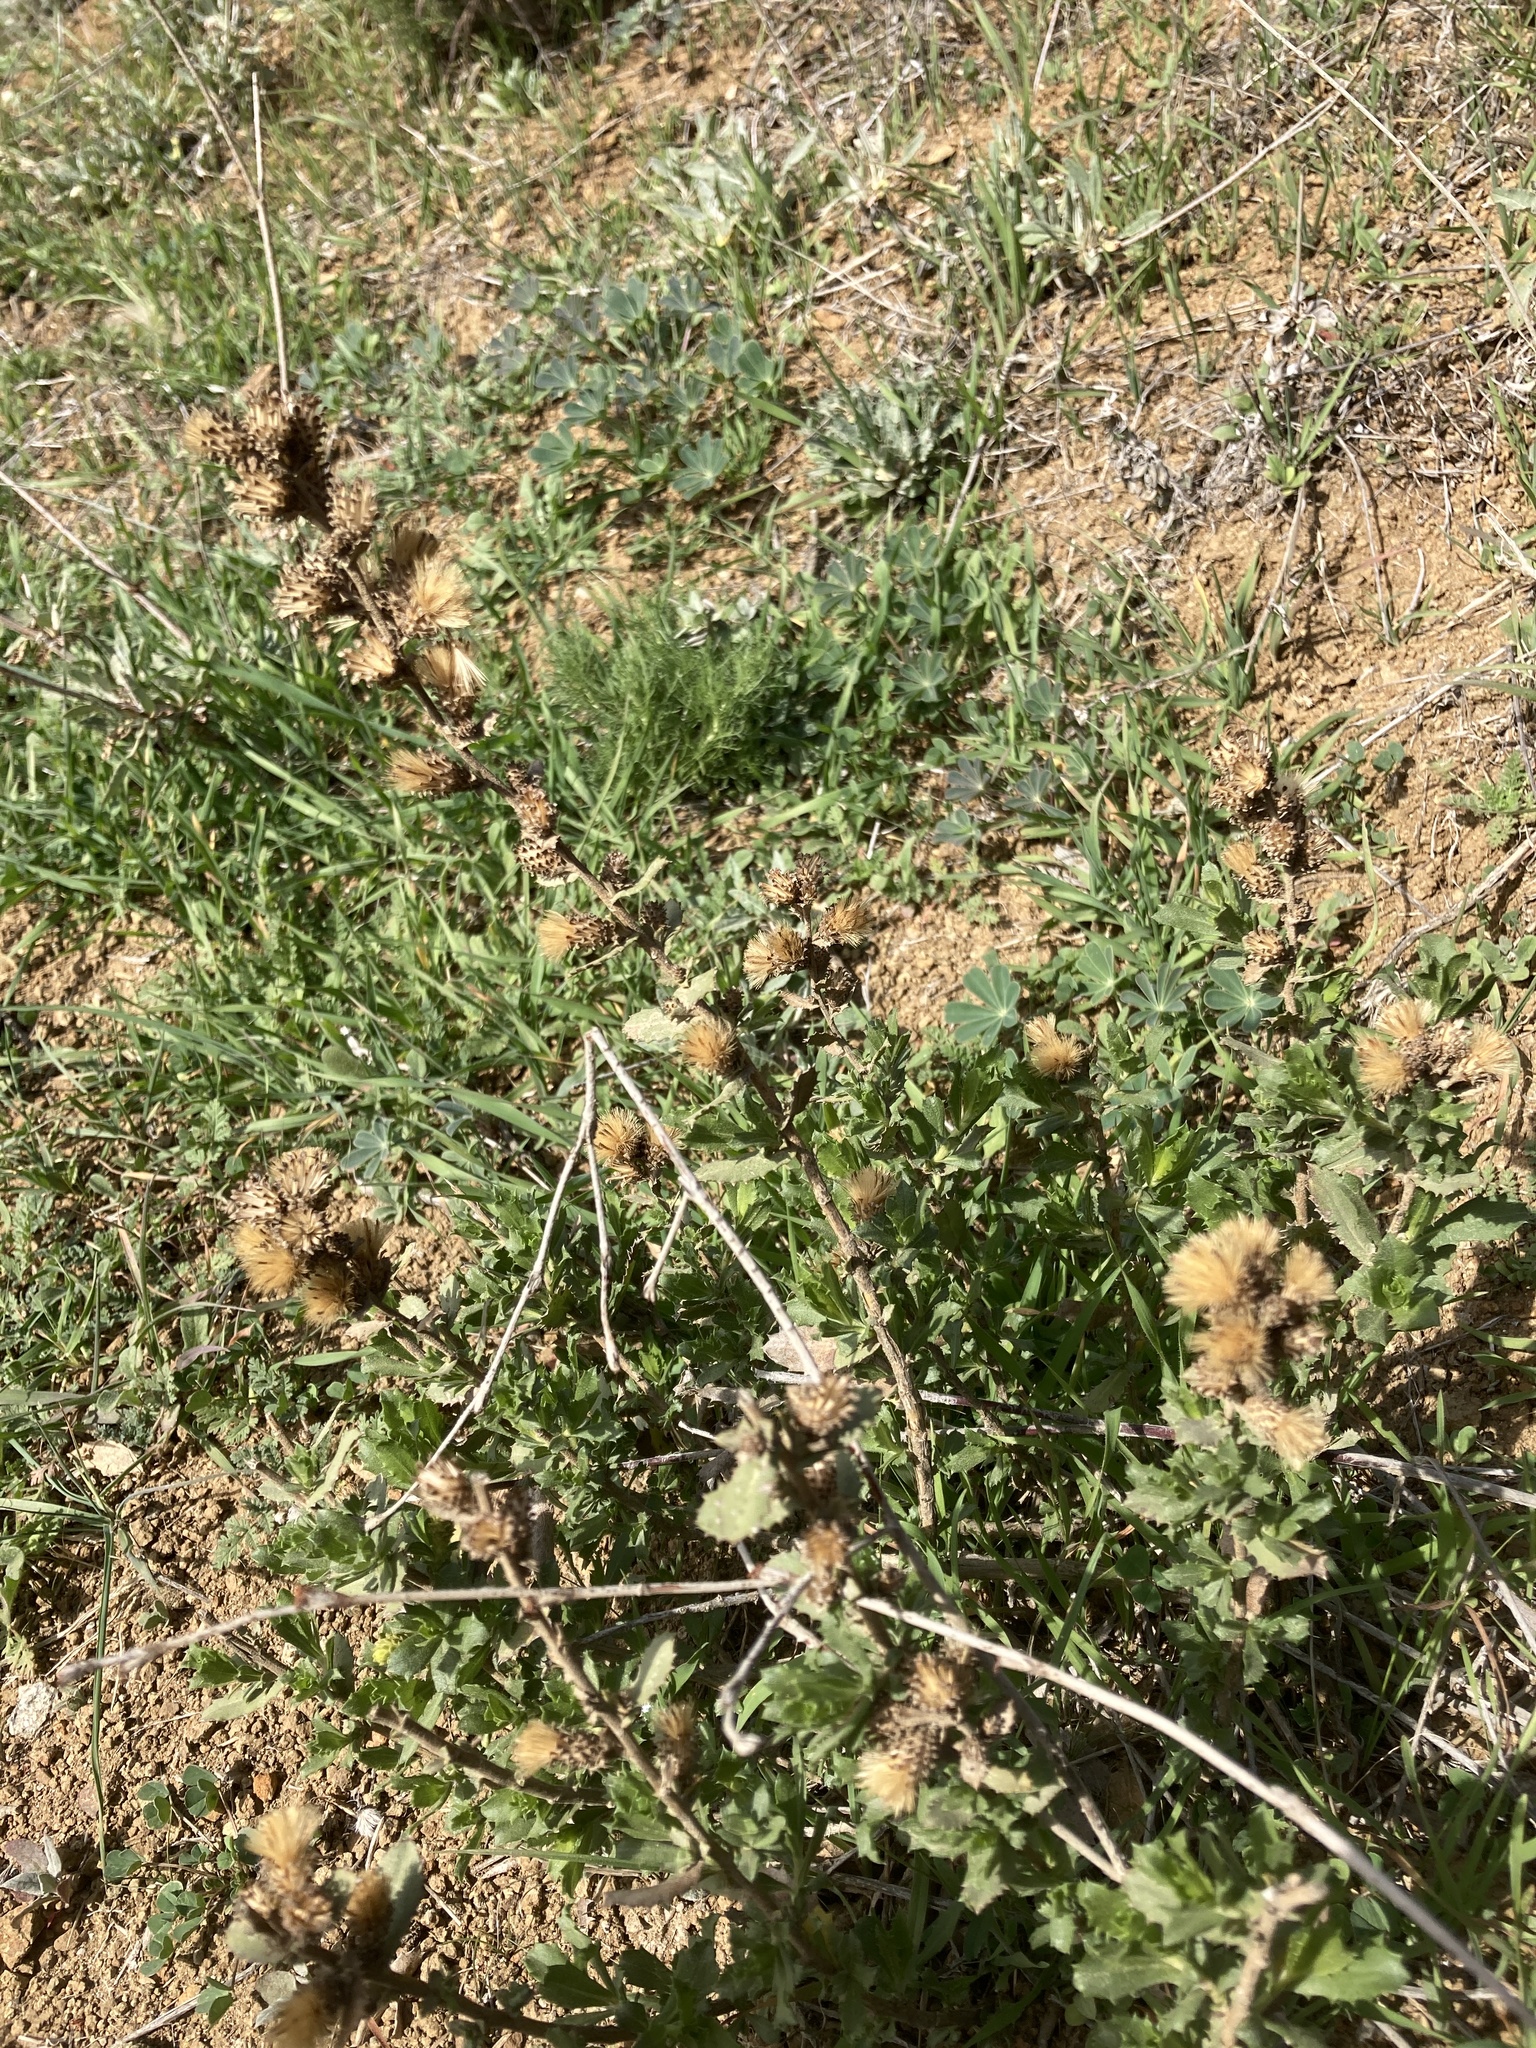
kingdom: Plantae
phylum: Tracheophyta
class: Magnoliopsida
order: Asterales
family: Asteraceae
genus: Hazardia
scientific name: Hazardia squarrosa
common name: Saw-tooth goldenbush
